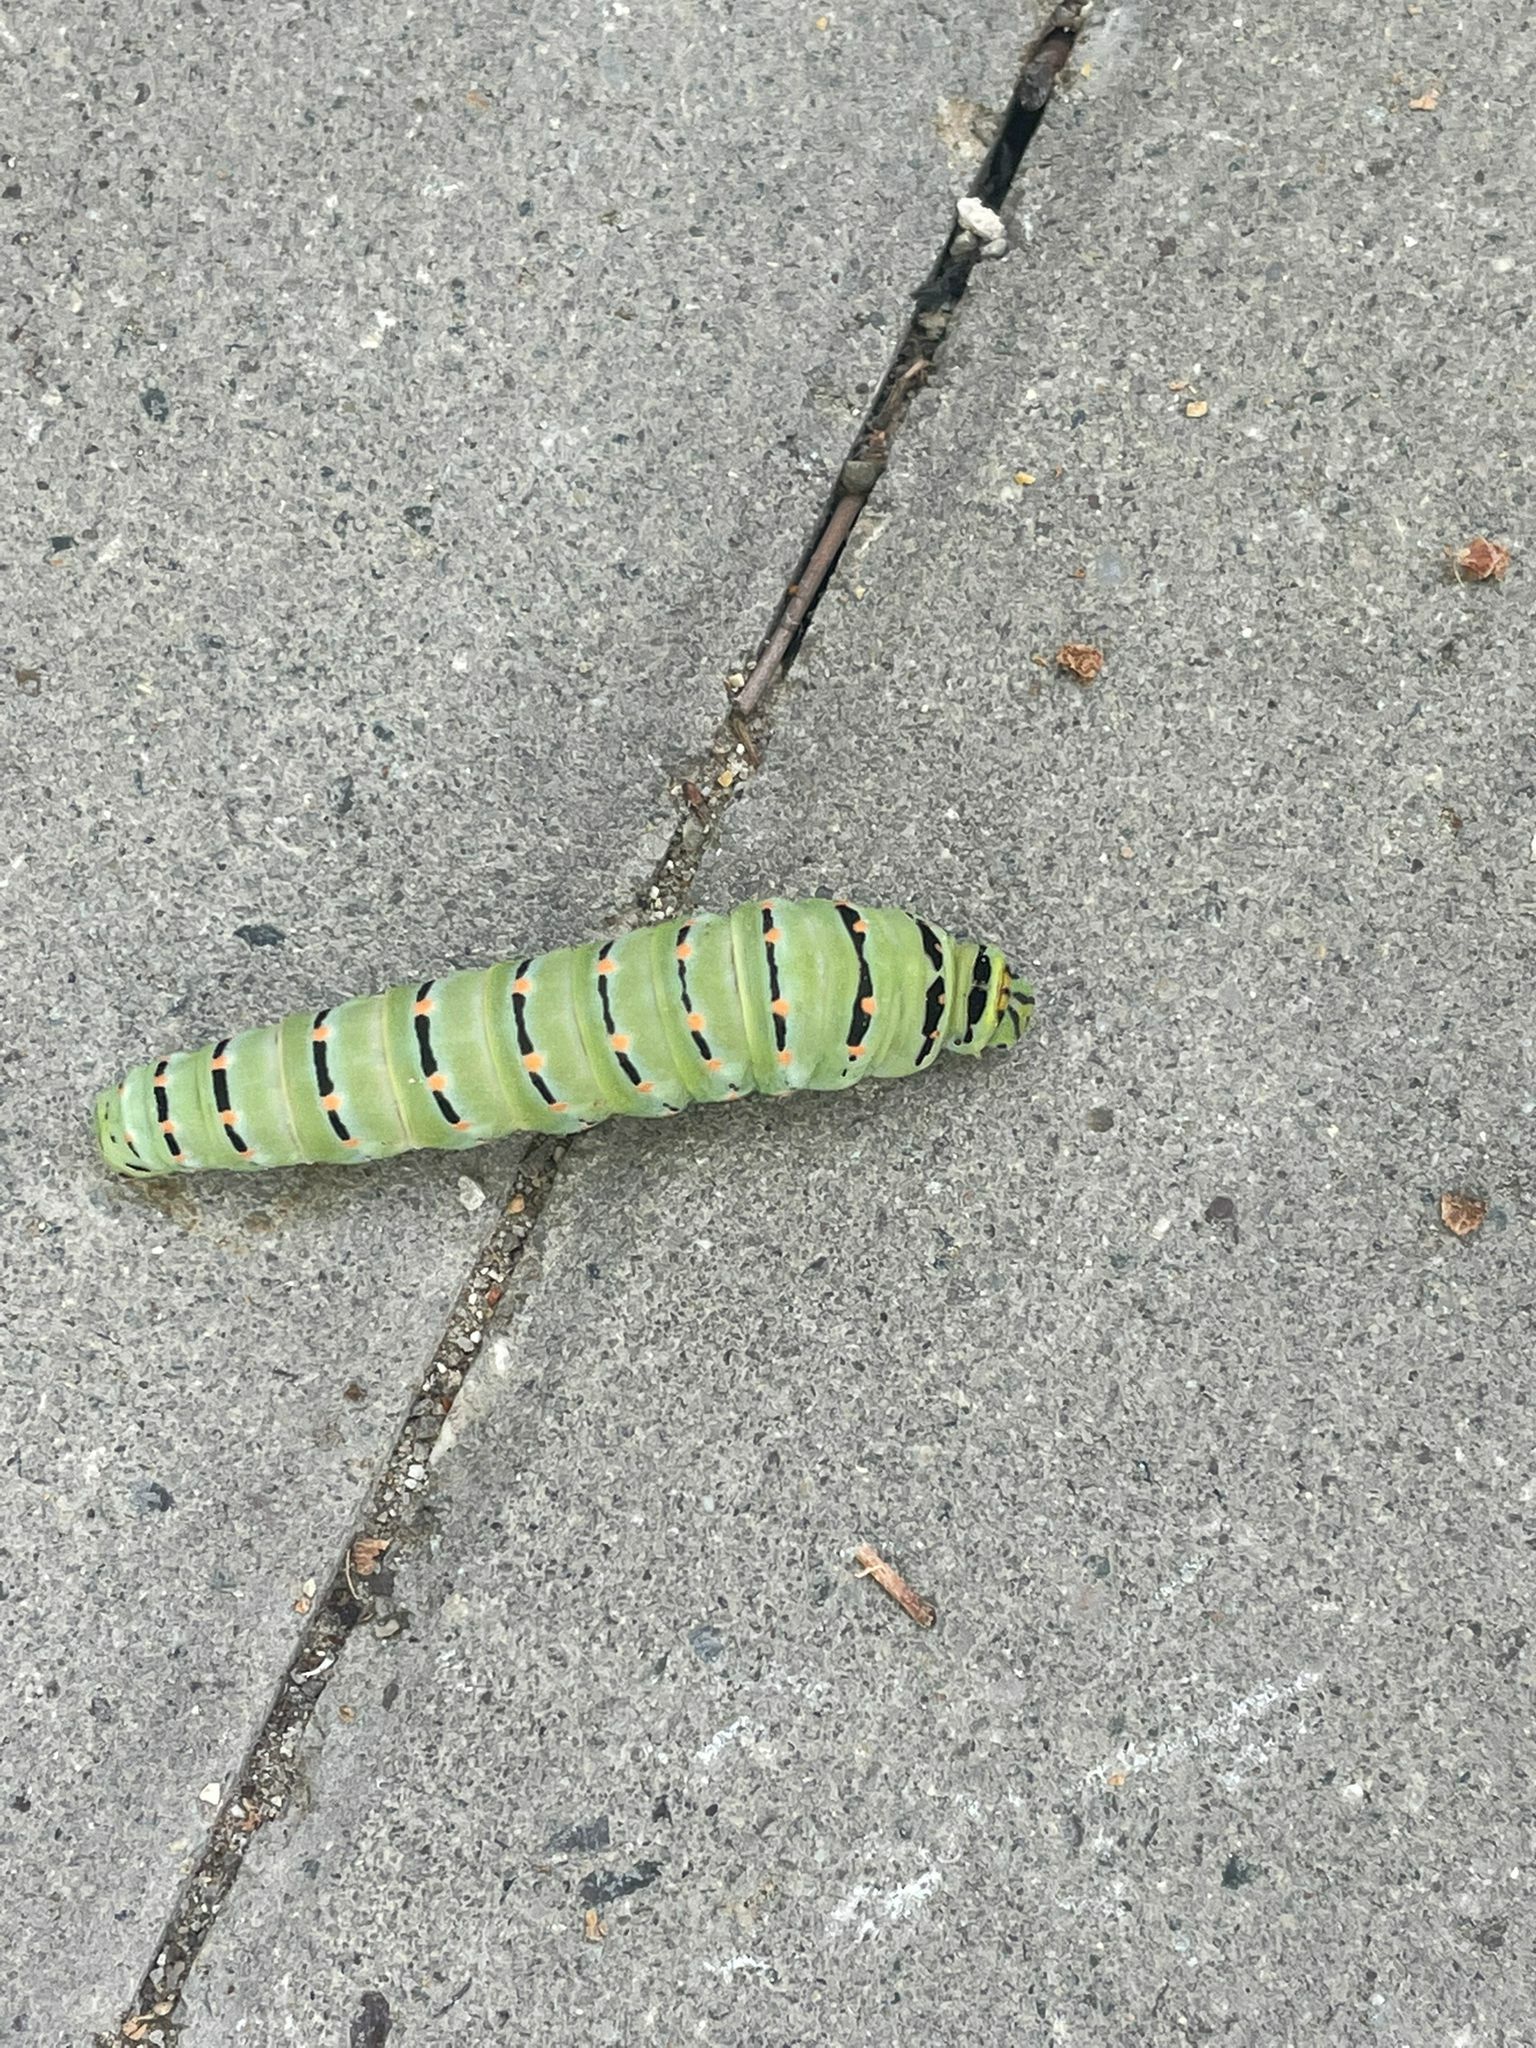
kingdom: Animalia
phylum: Arthropoda
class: Insecta
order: Lepidoptera
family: Papilionidae
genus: Papilio
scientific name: Papilio machaon
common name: Swallowtail
